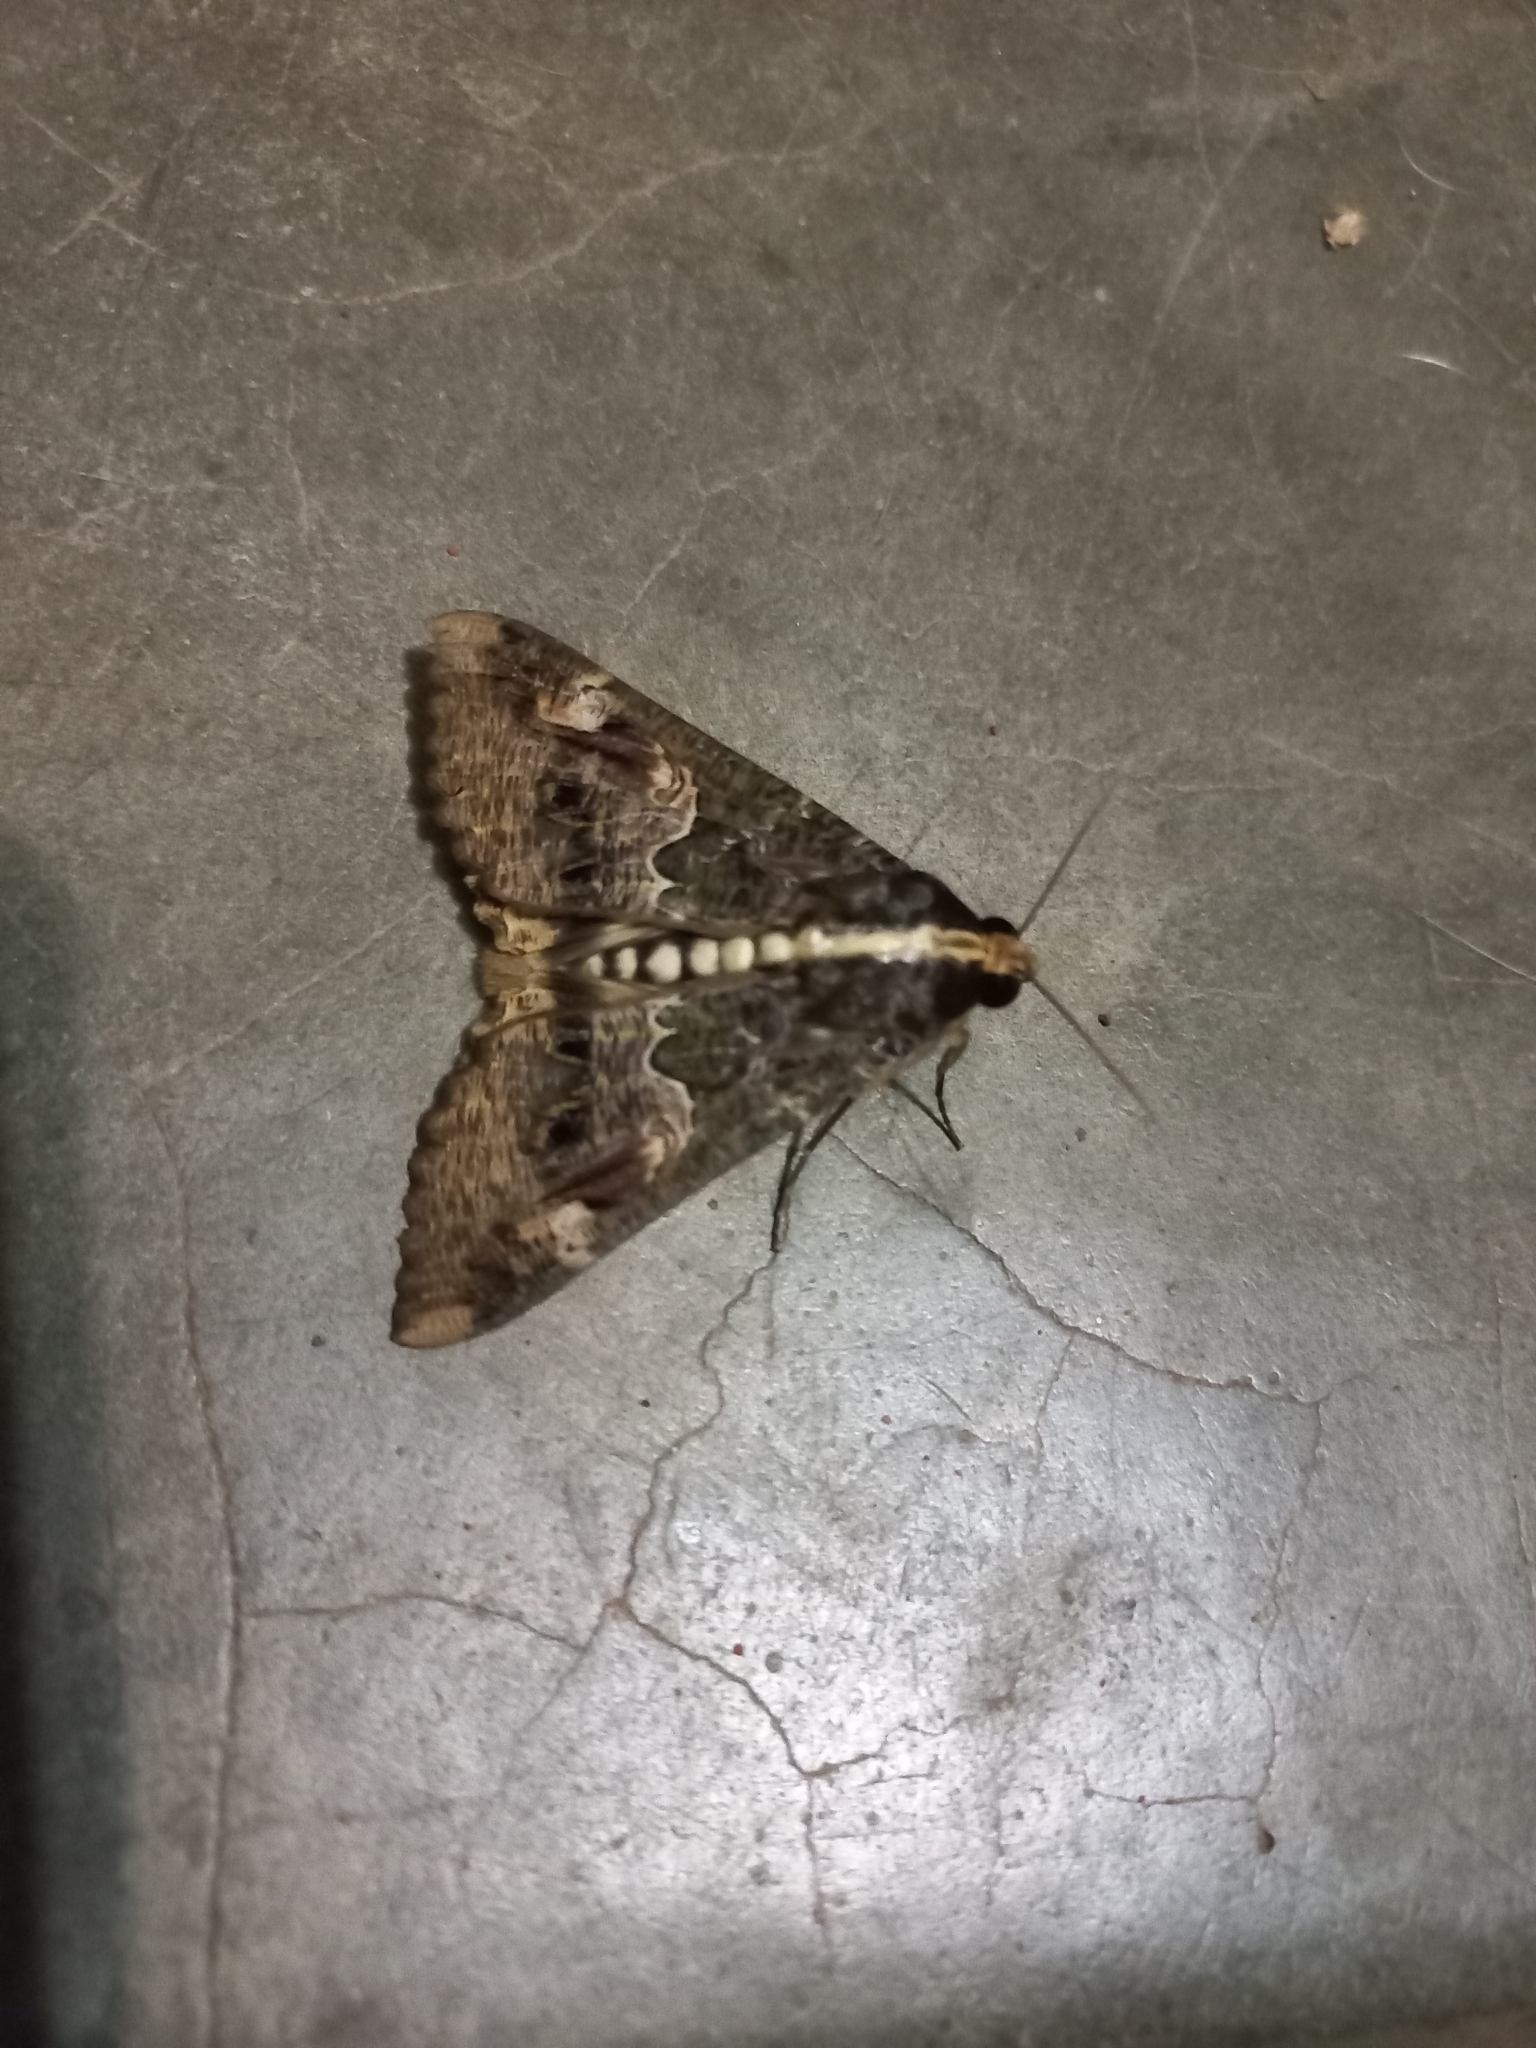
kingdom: Animalia
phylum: Arthropoda
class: Insecta
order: Lepidoptera
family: Erebidae
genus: Sphingomorpha
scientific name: Sphingomorpha chlorea
